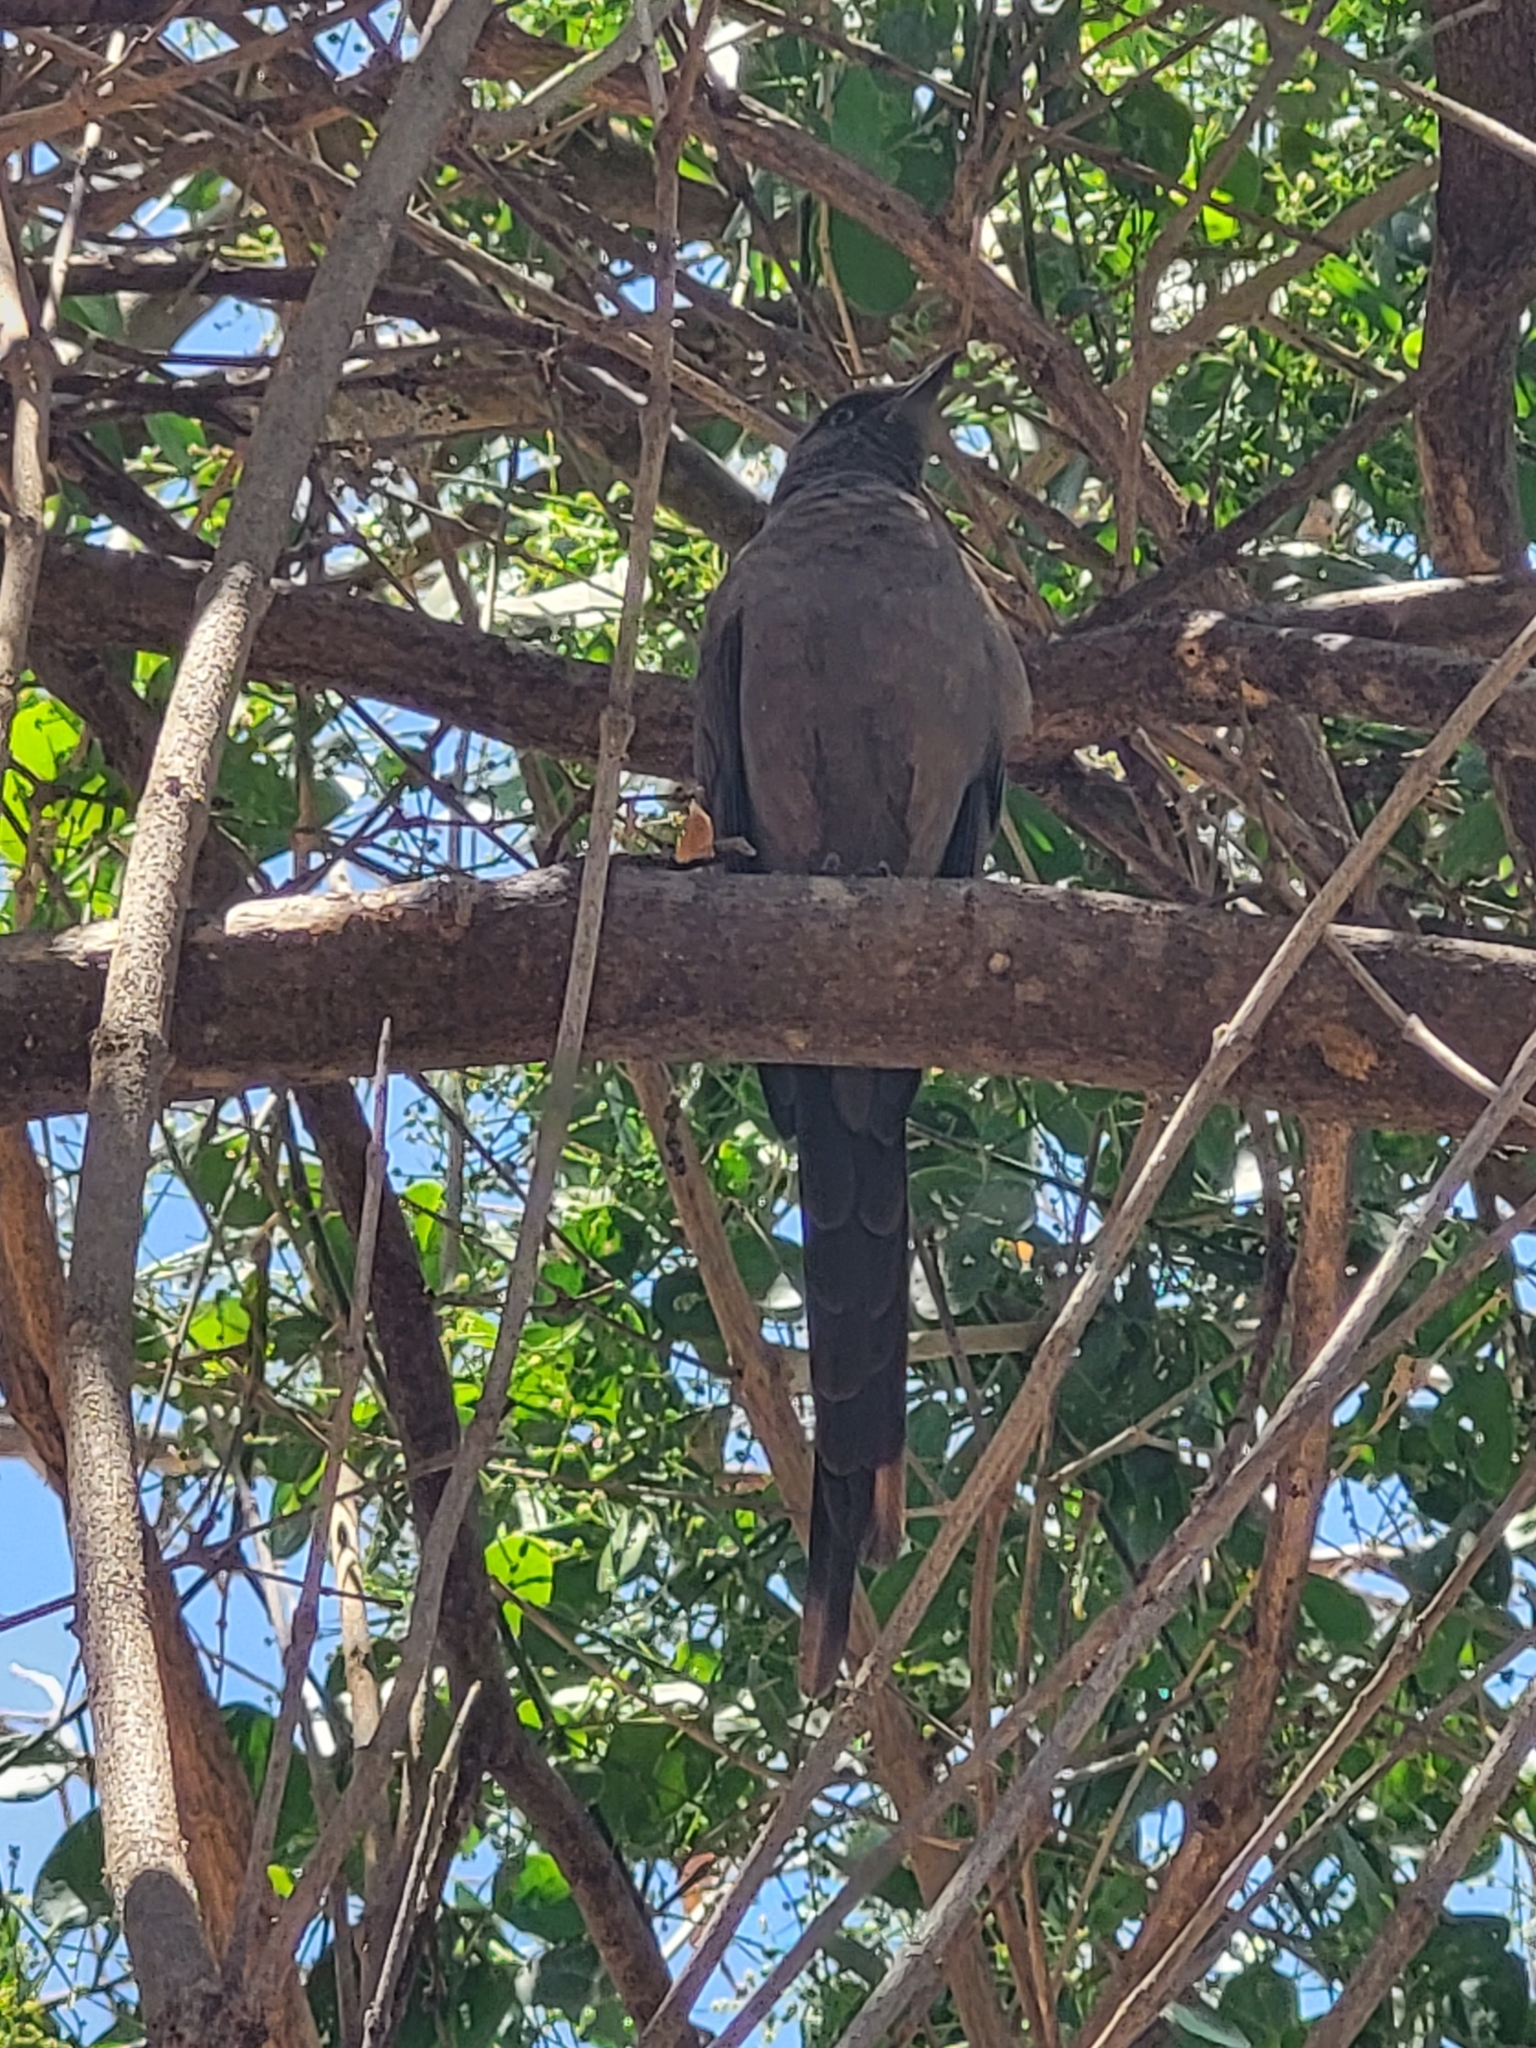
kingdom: Animalia
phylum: Chordata
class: Aves
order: Passeriformes
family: Sturnidae
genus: Lamprotornis
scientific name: Lamprotornis unicolor
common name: Ashy starling
